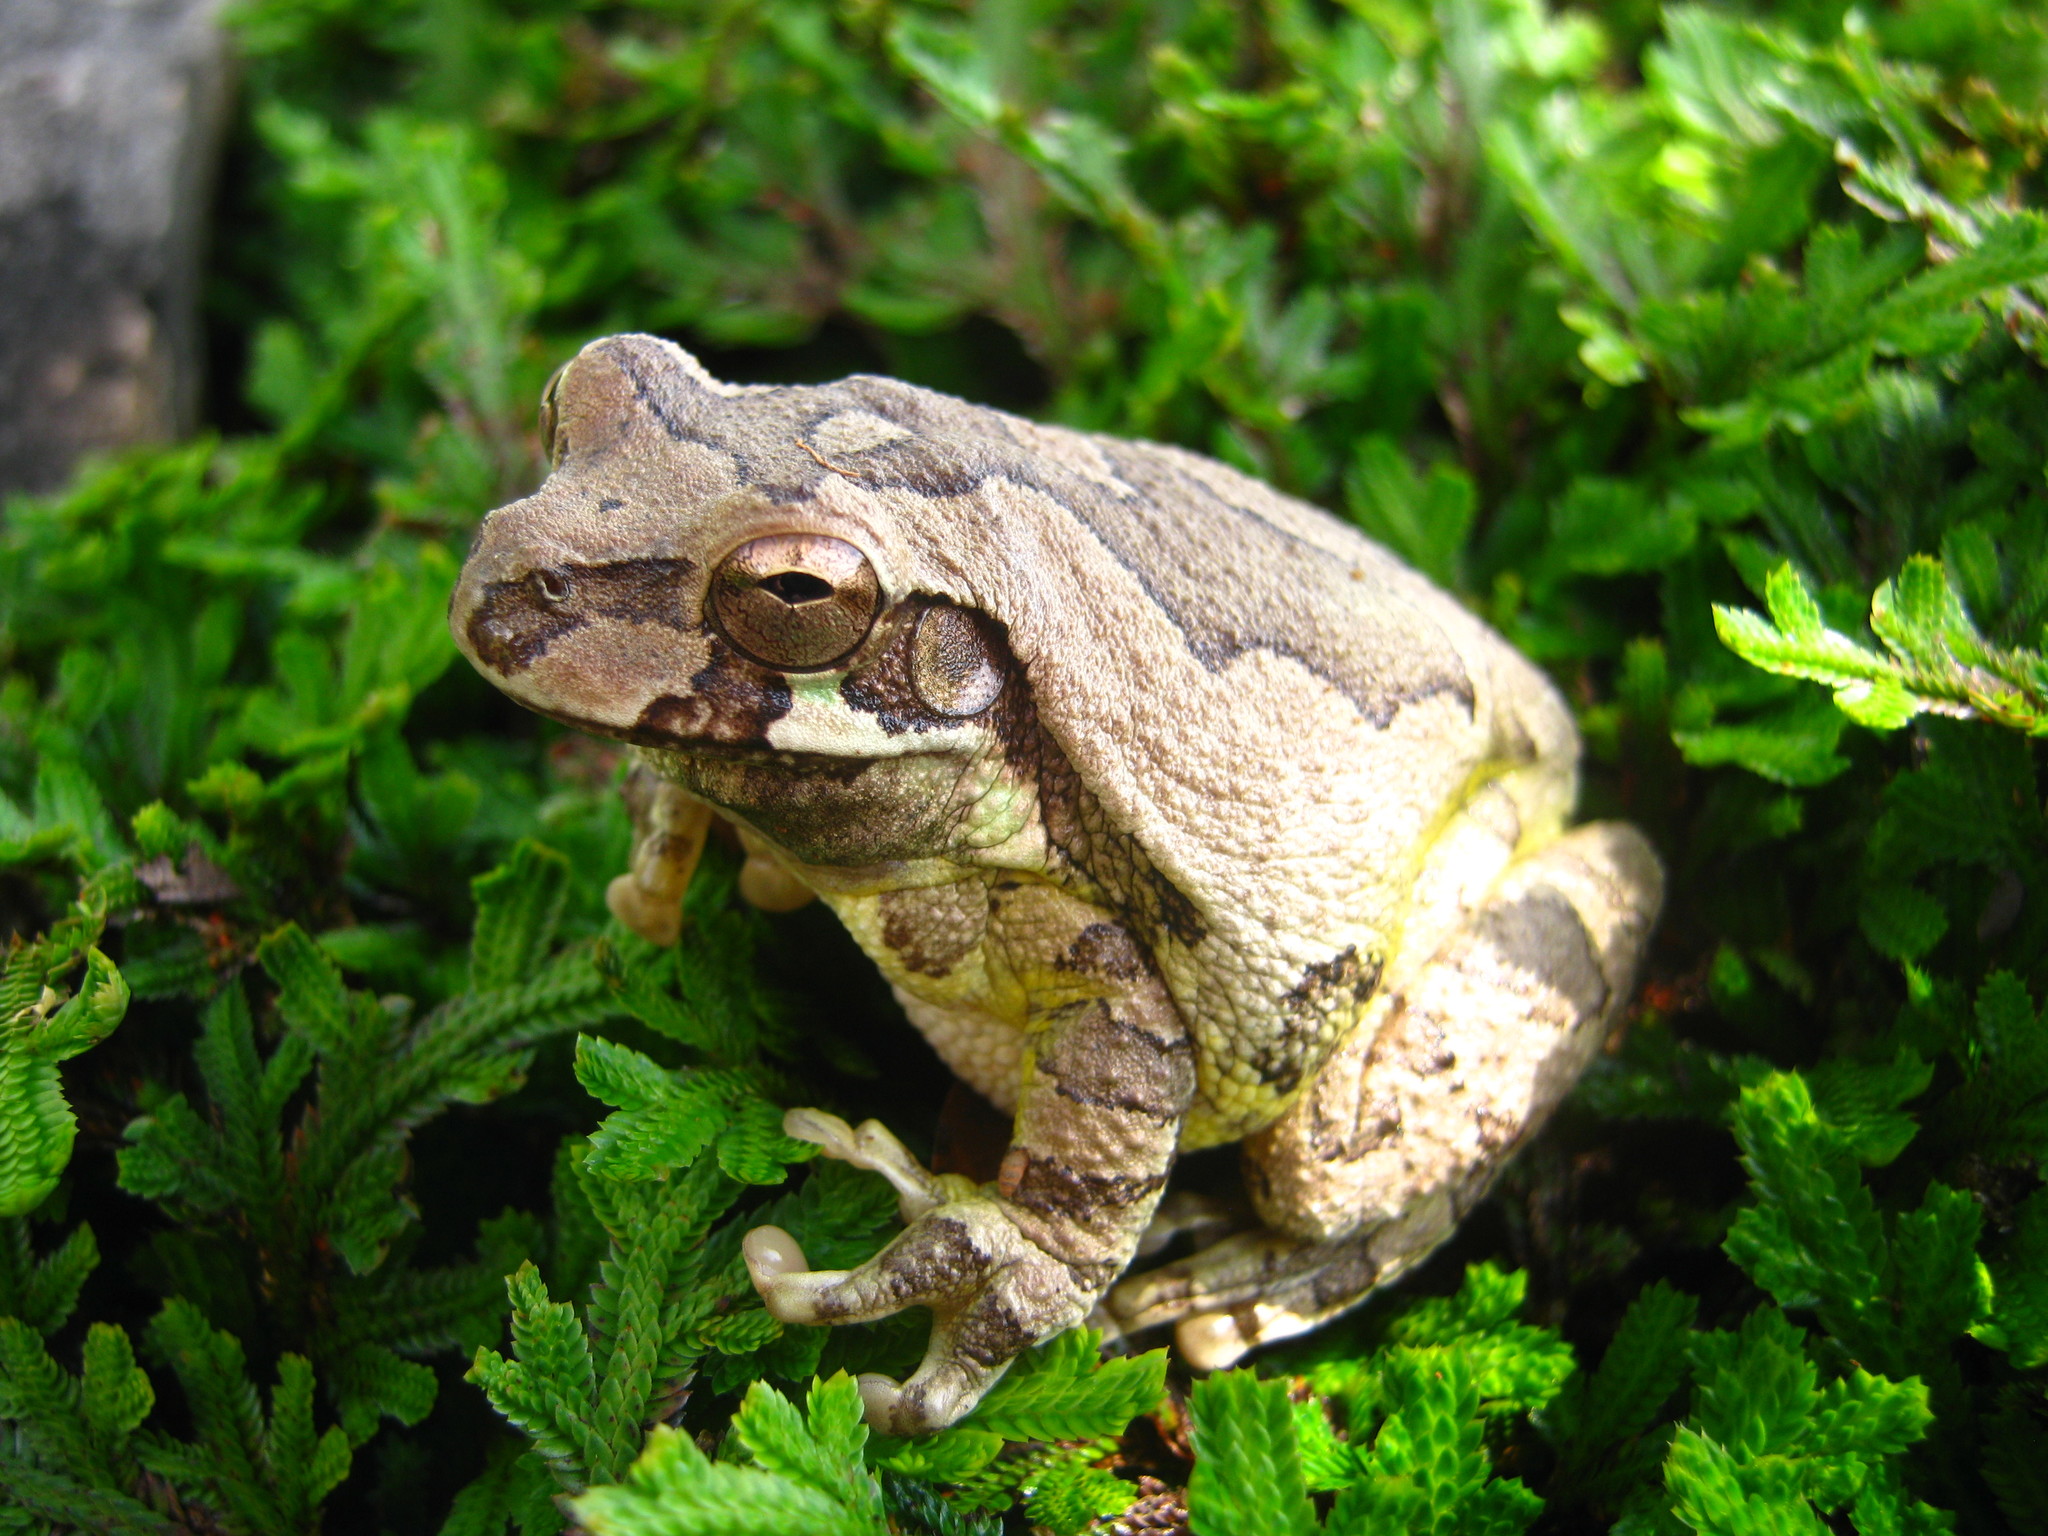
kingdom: Animalia
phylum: Chordata
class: Amphibia
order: Anura
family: Hylidae
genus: Smilisca
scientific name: Smilisca baudinii
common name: Mexican smilisca
